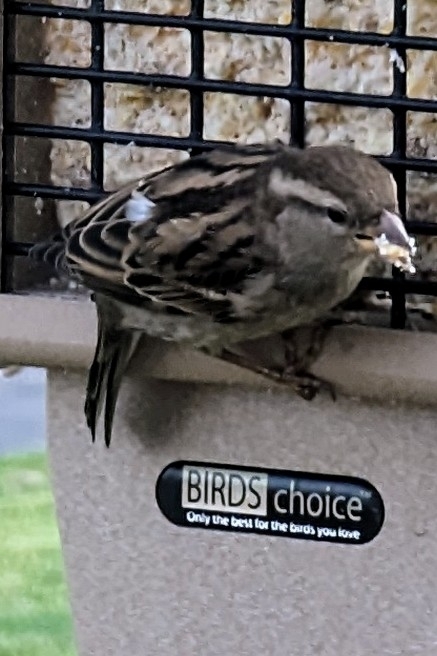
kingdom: Animalia
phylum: Chordata
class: Aves
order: Passeriformes
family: Passeridae
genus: Passer
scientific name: Passer domesticus
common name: House sparrow
